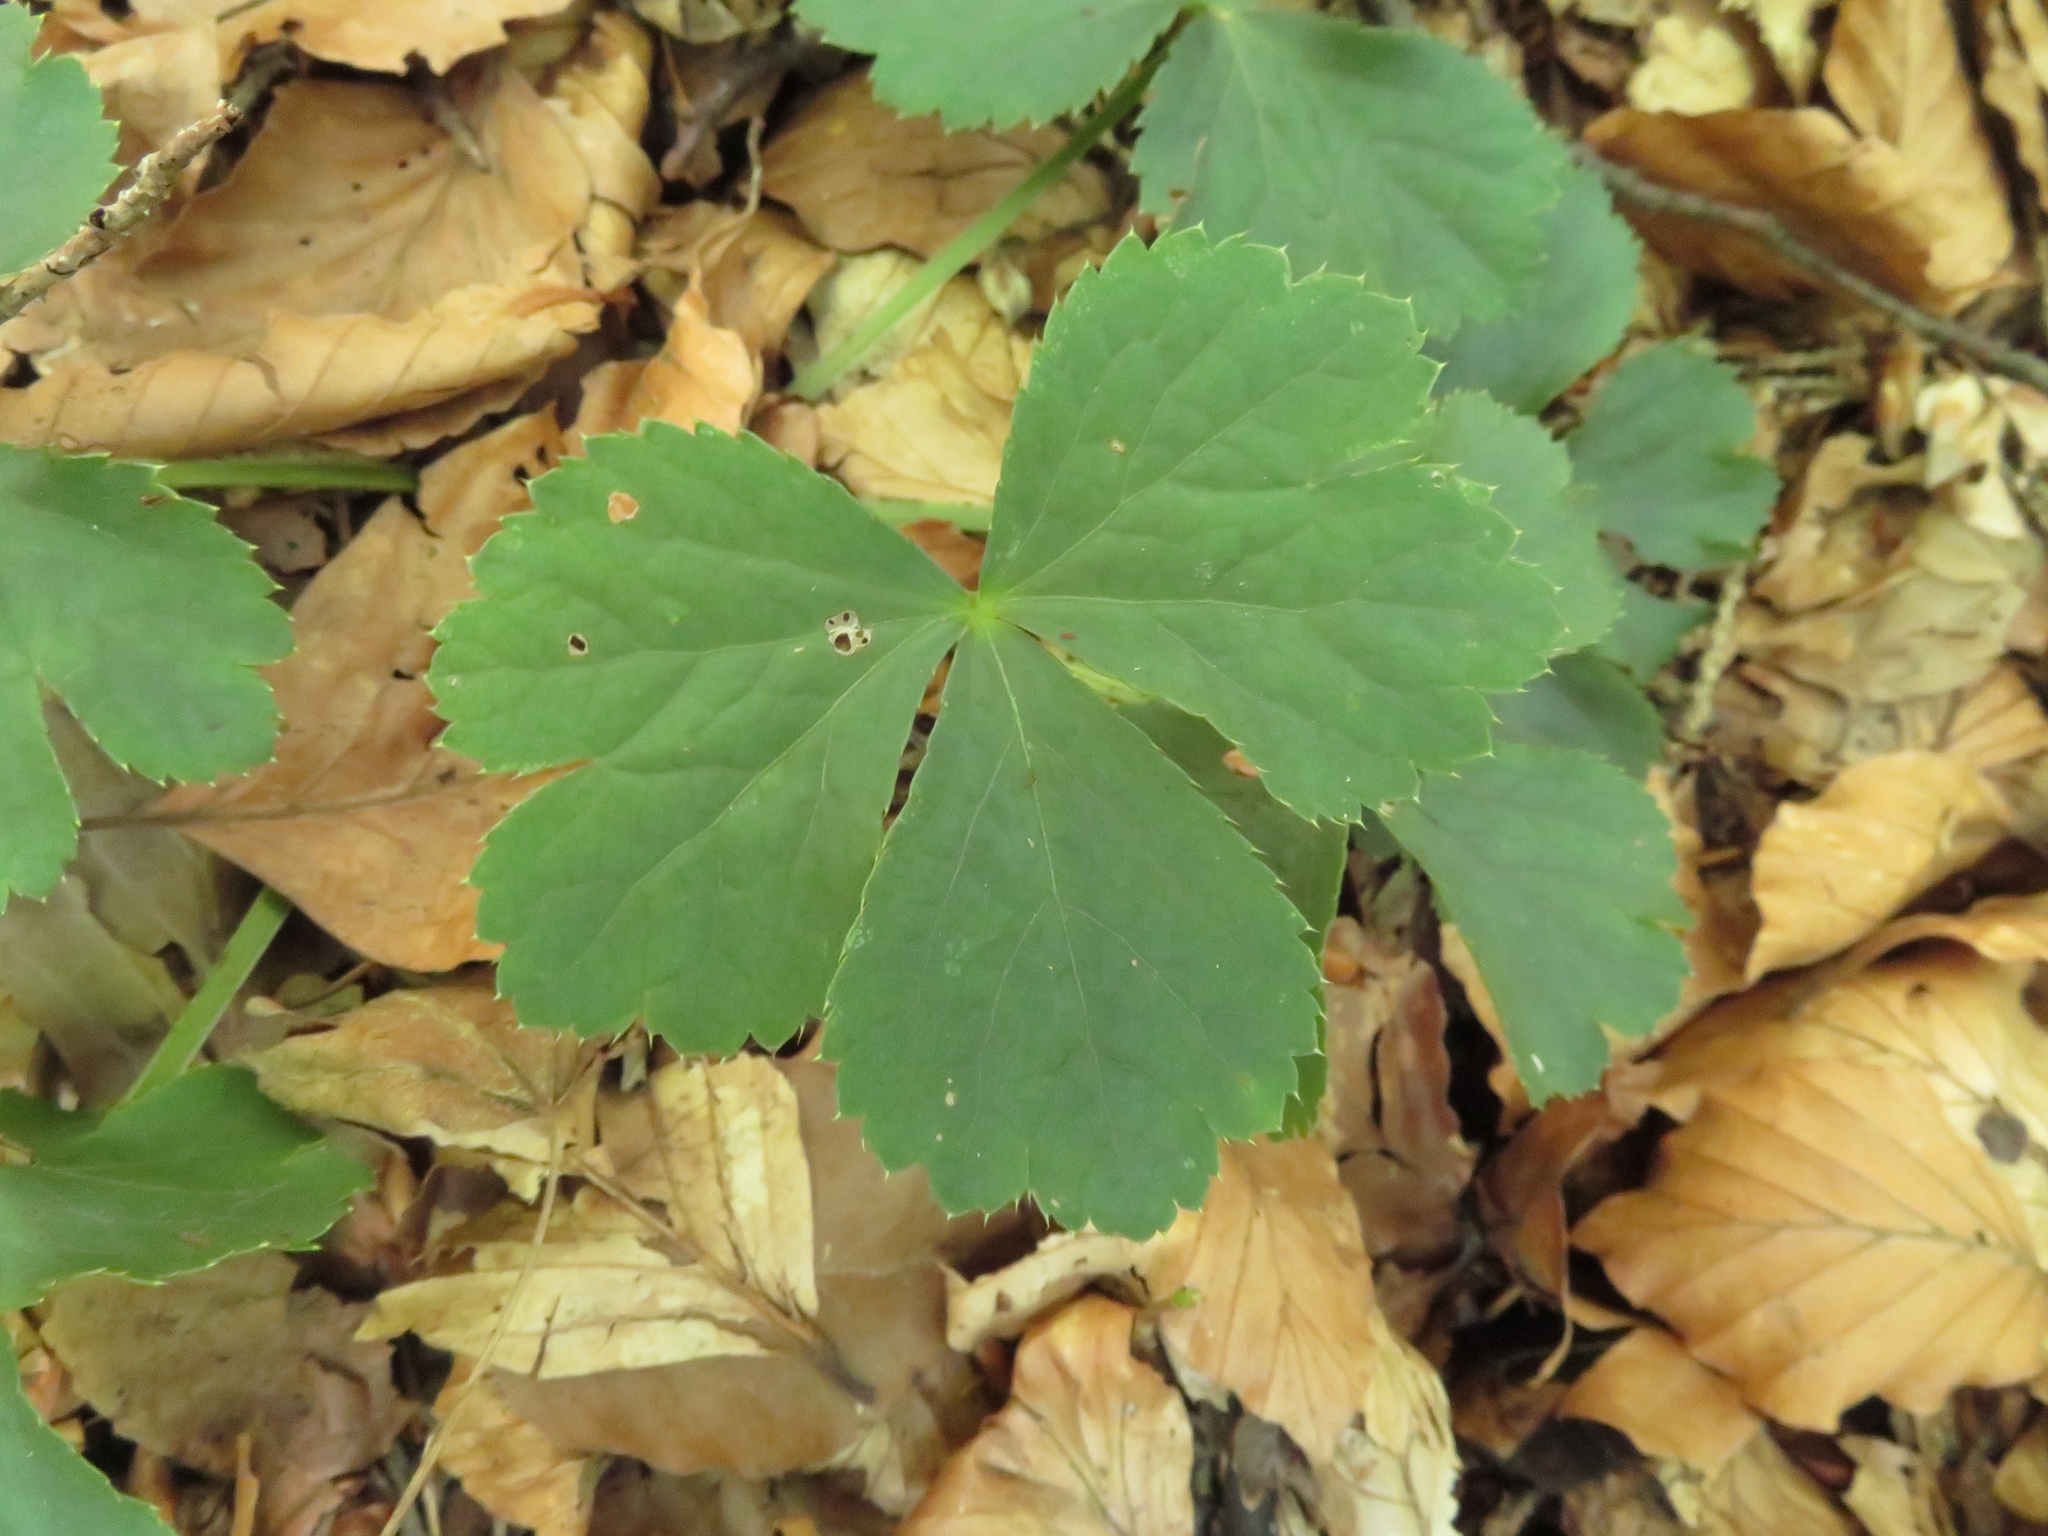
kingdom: Plantae
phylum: Tracheophyta
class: Magnoliopsida
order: Apiales
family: Apiaceae
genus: Sanicula
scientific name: Sanicula epipactis
